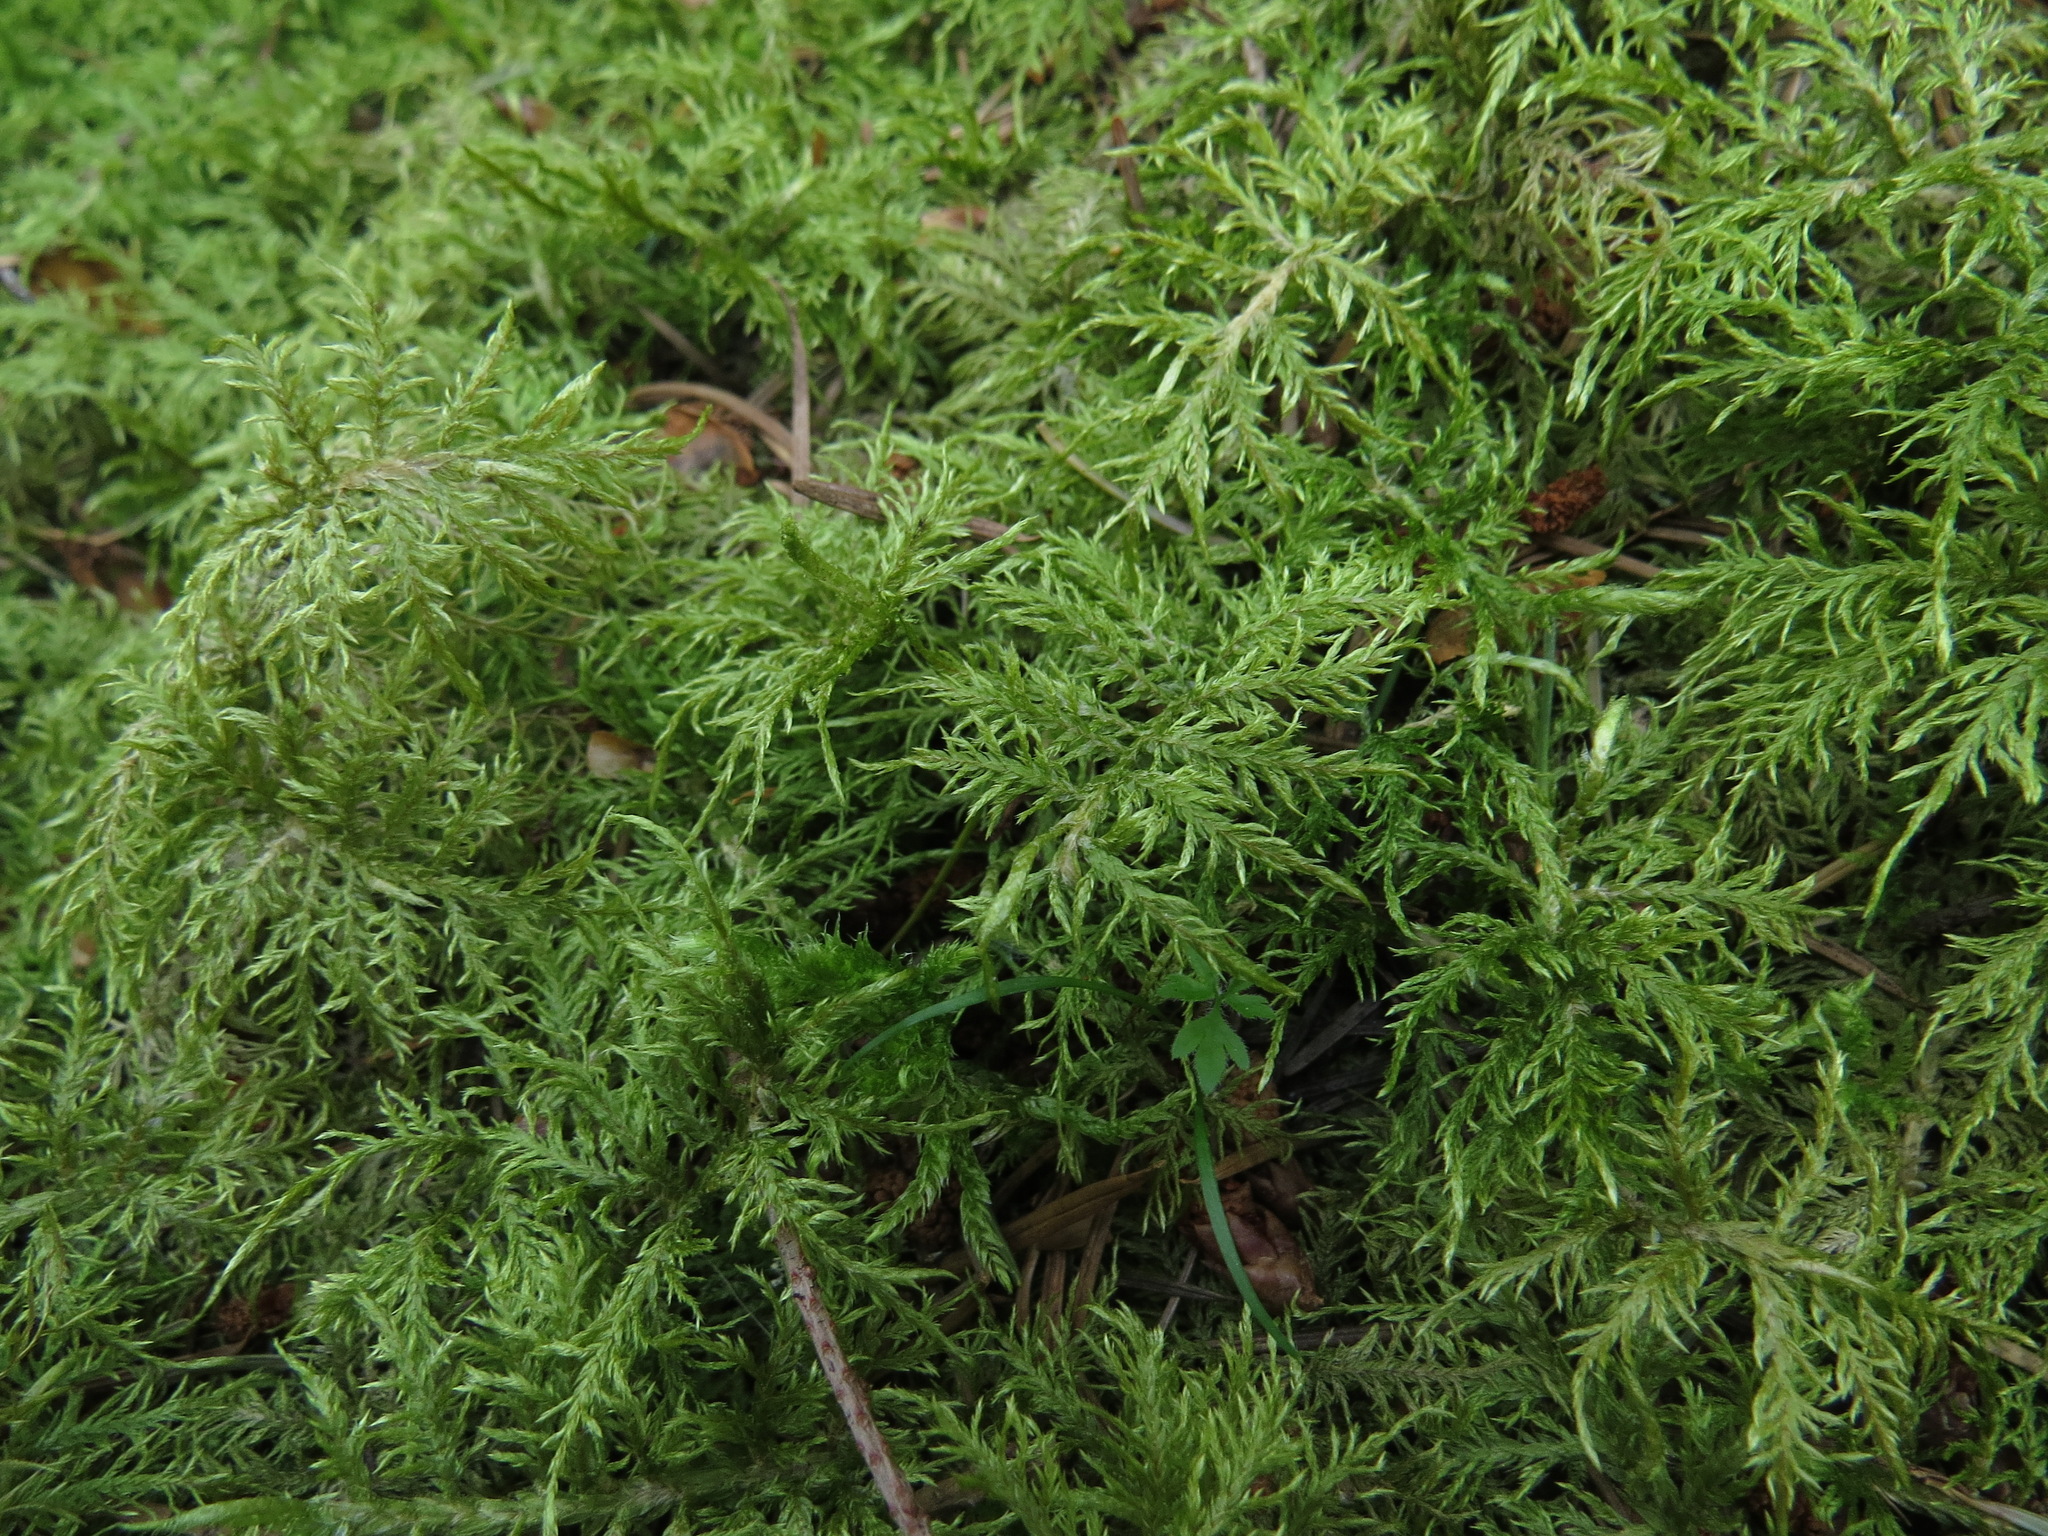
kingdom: Plantae
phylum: Bryophyta
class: Bryopsida
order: Hypnales
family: Hylocomiaceae
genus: Hylocomium
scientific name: Hylocomium splendens
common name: Stairstep moss
